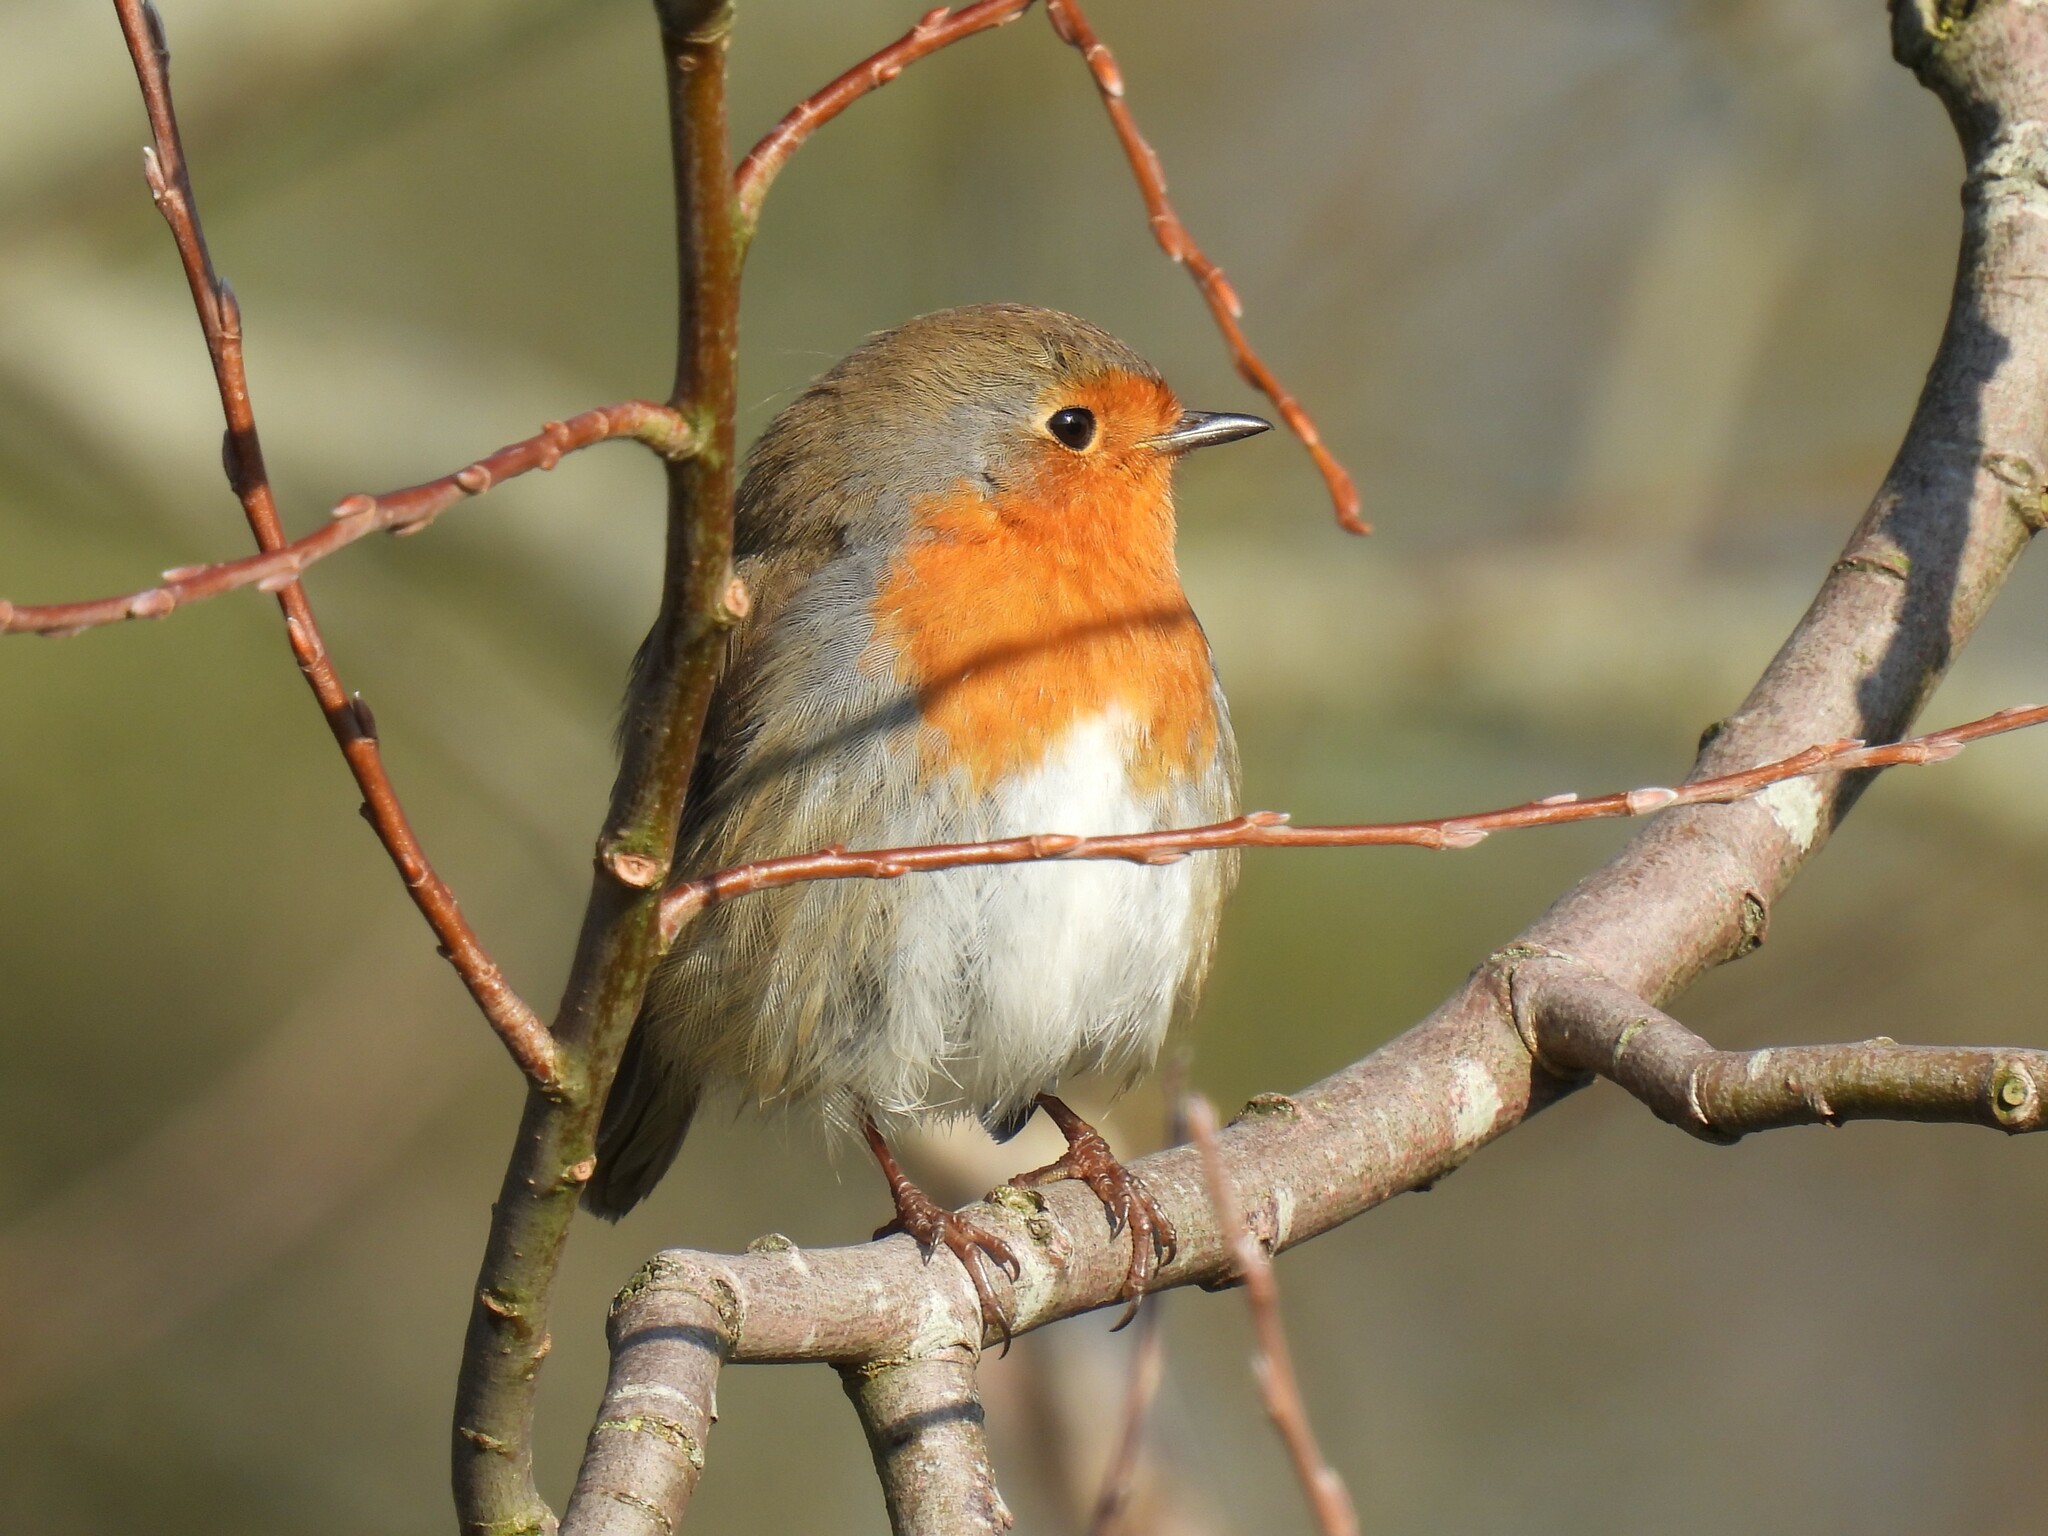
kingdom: Animalia
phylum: Chordata
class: Aves
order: Passeriformes
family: Muscicapidae
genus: Erithacus
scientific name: Erithacus rubecula
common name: European robin
